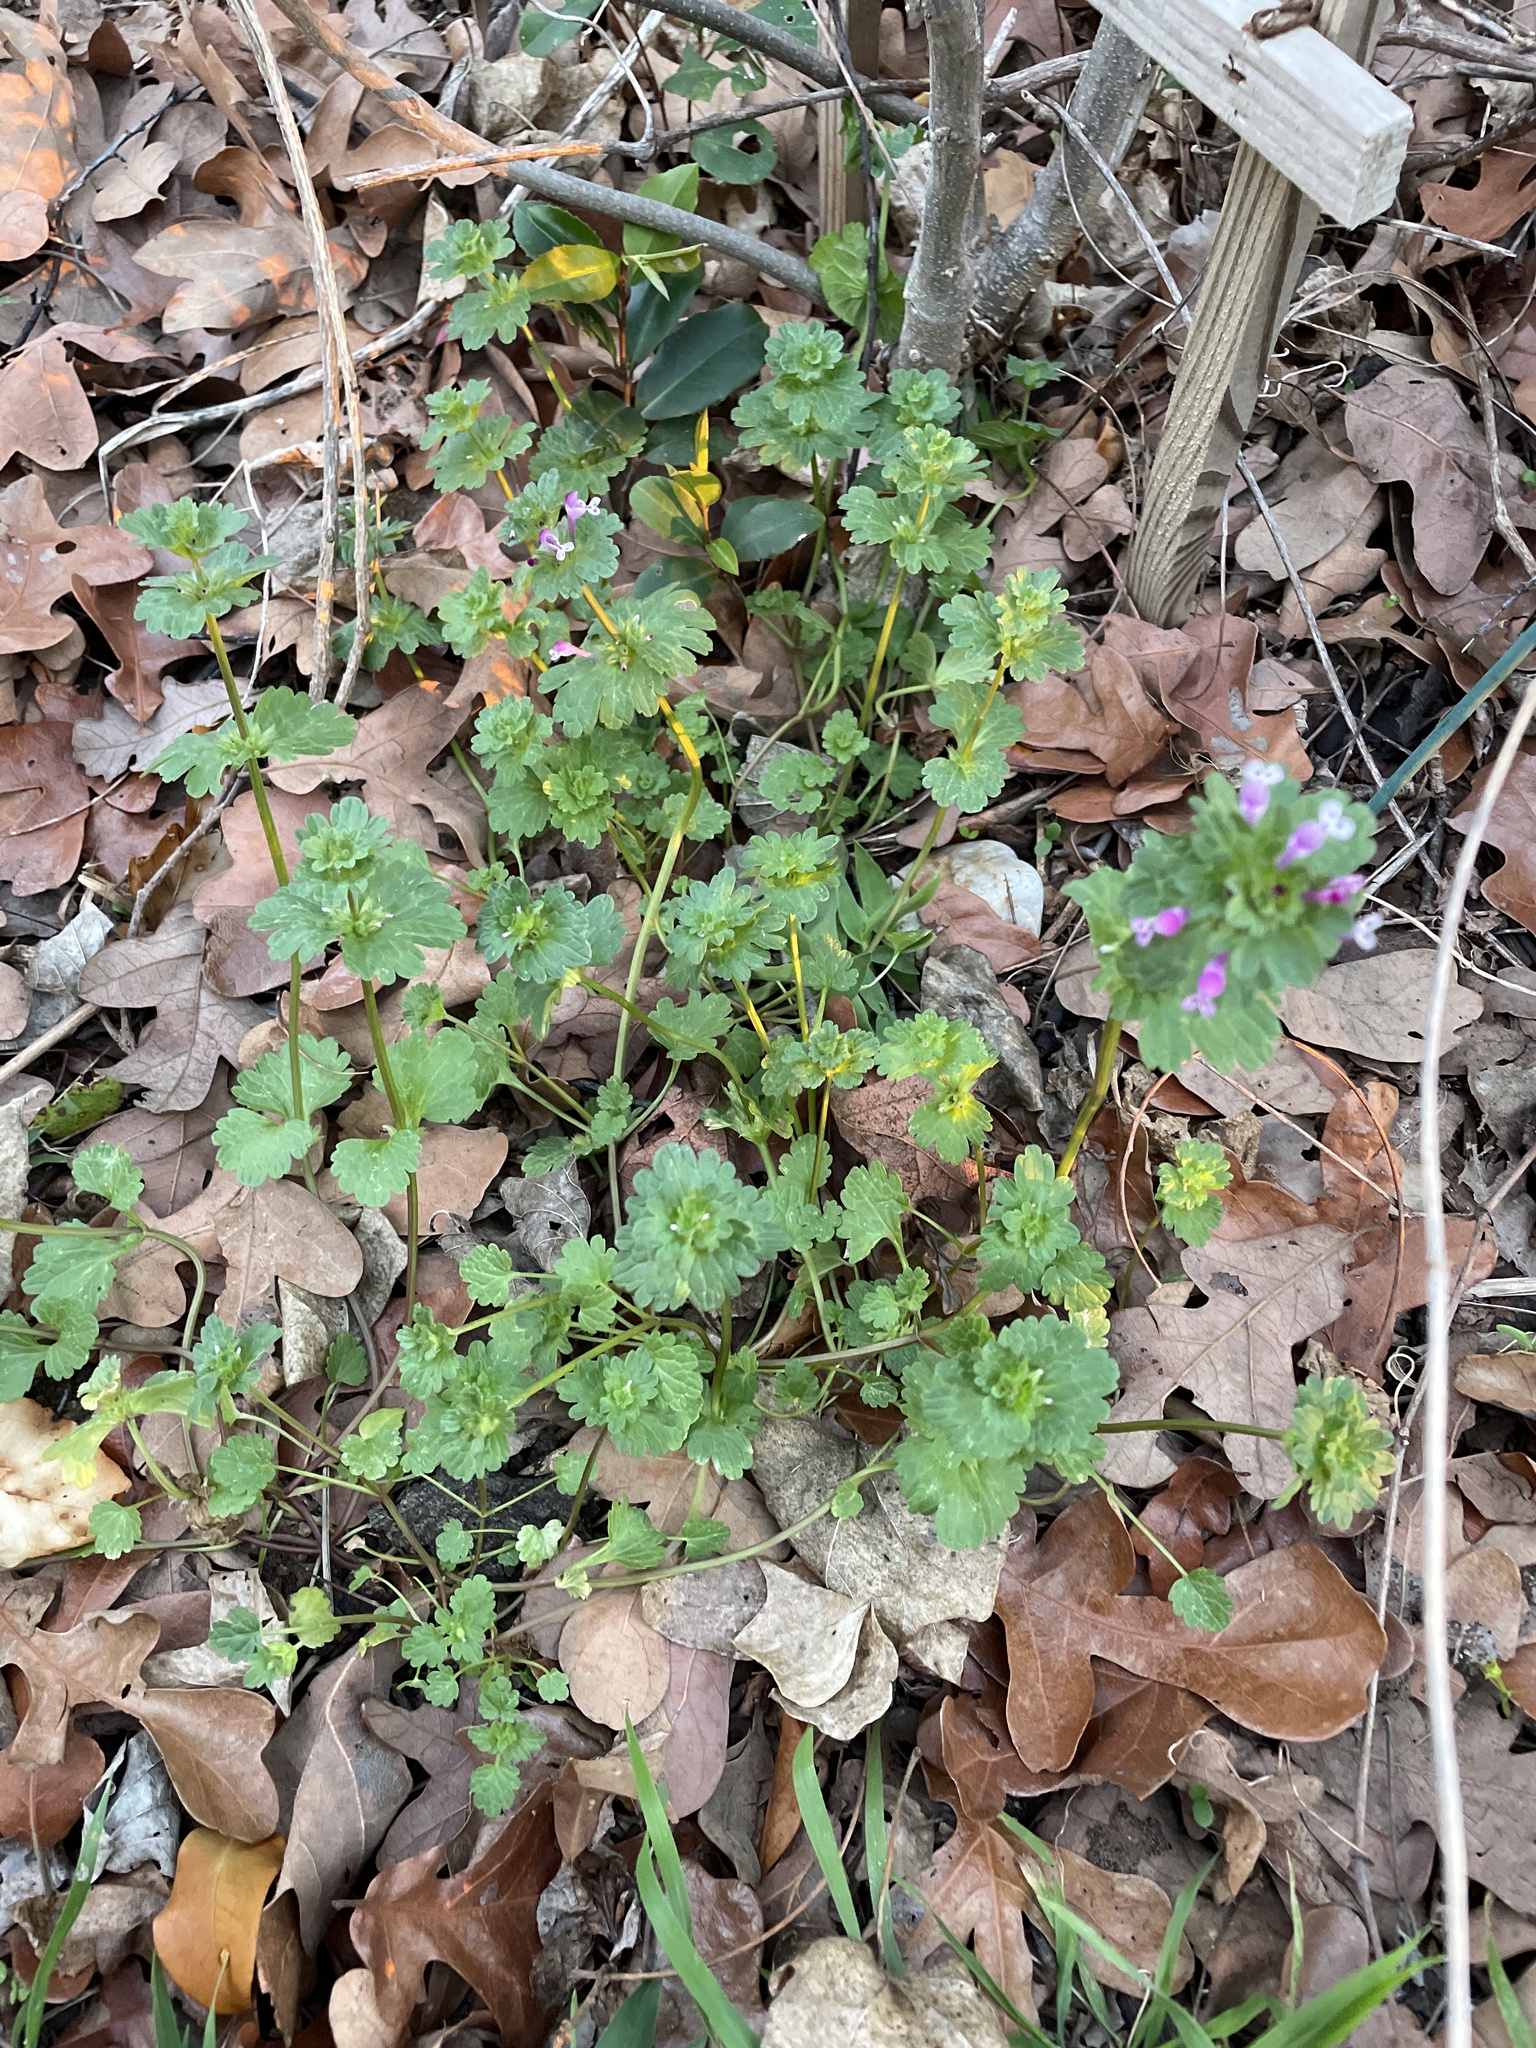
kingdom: Plantae
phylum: Tracheophyta
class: Magnoliopsida
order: Lamiales
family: Lamiaceae
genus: Lamium
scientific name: Lamium amplexicaule
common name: Henbit dead-nettle
